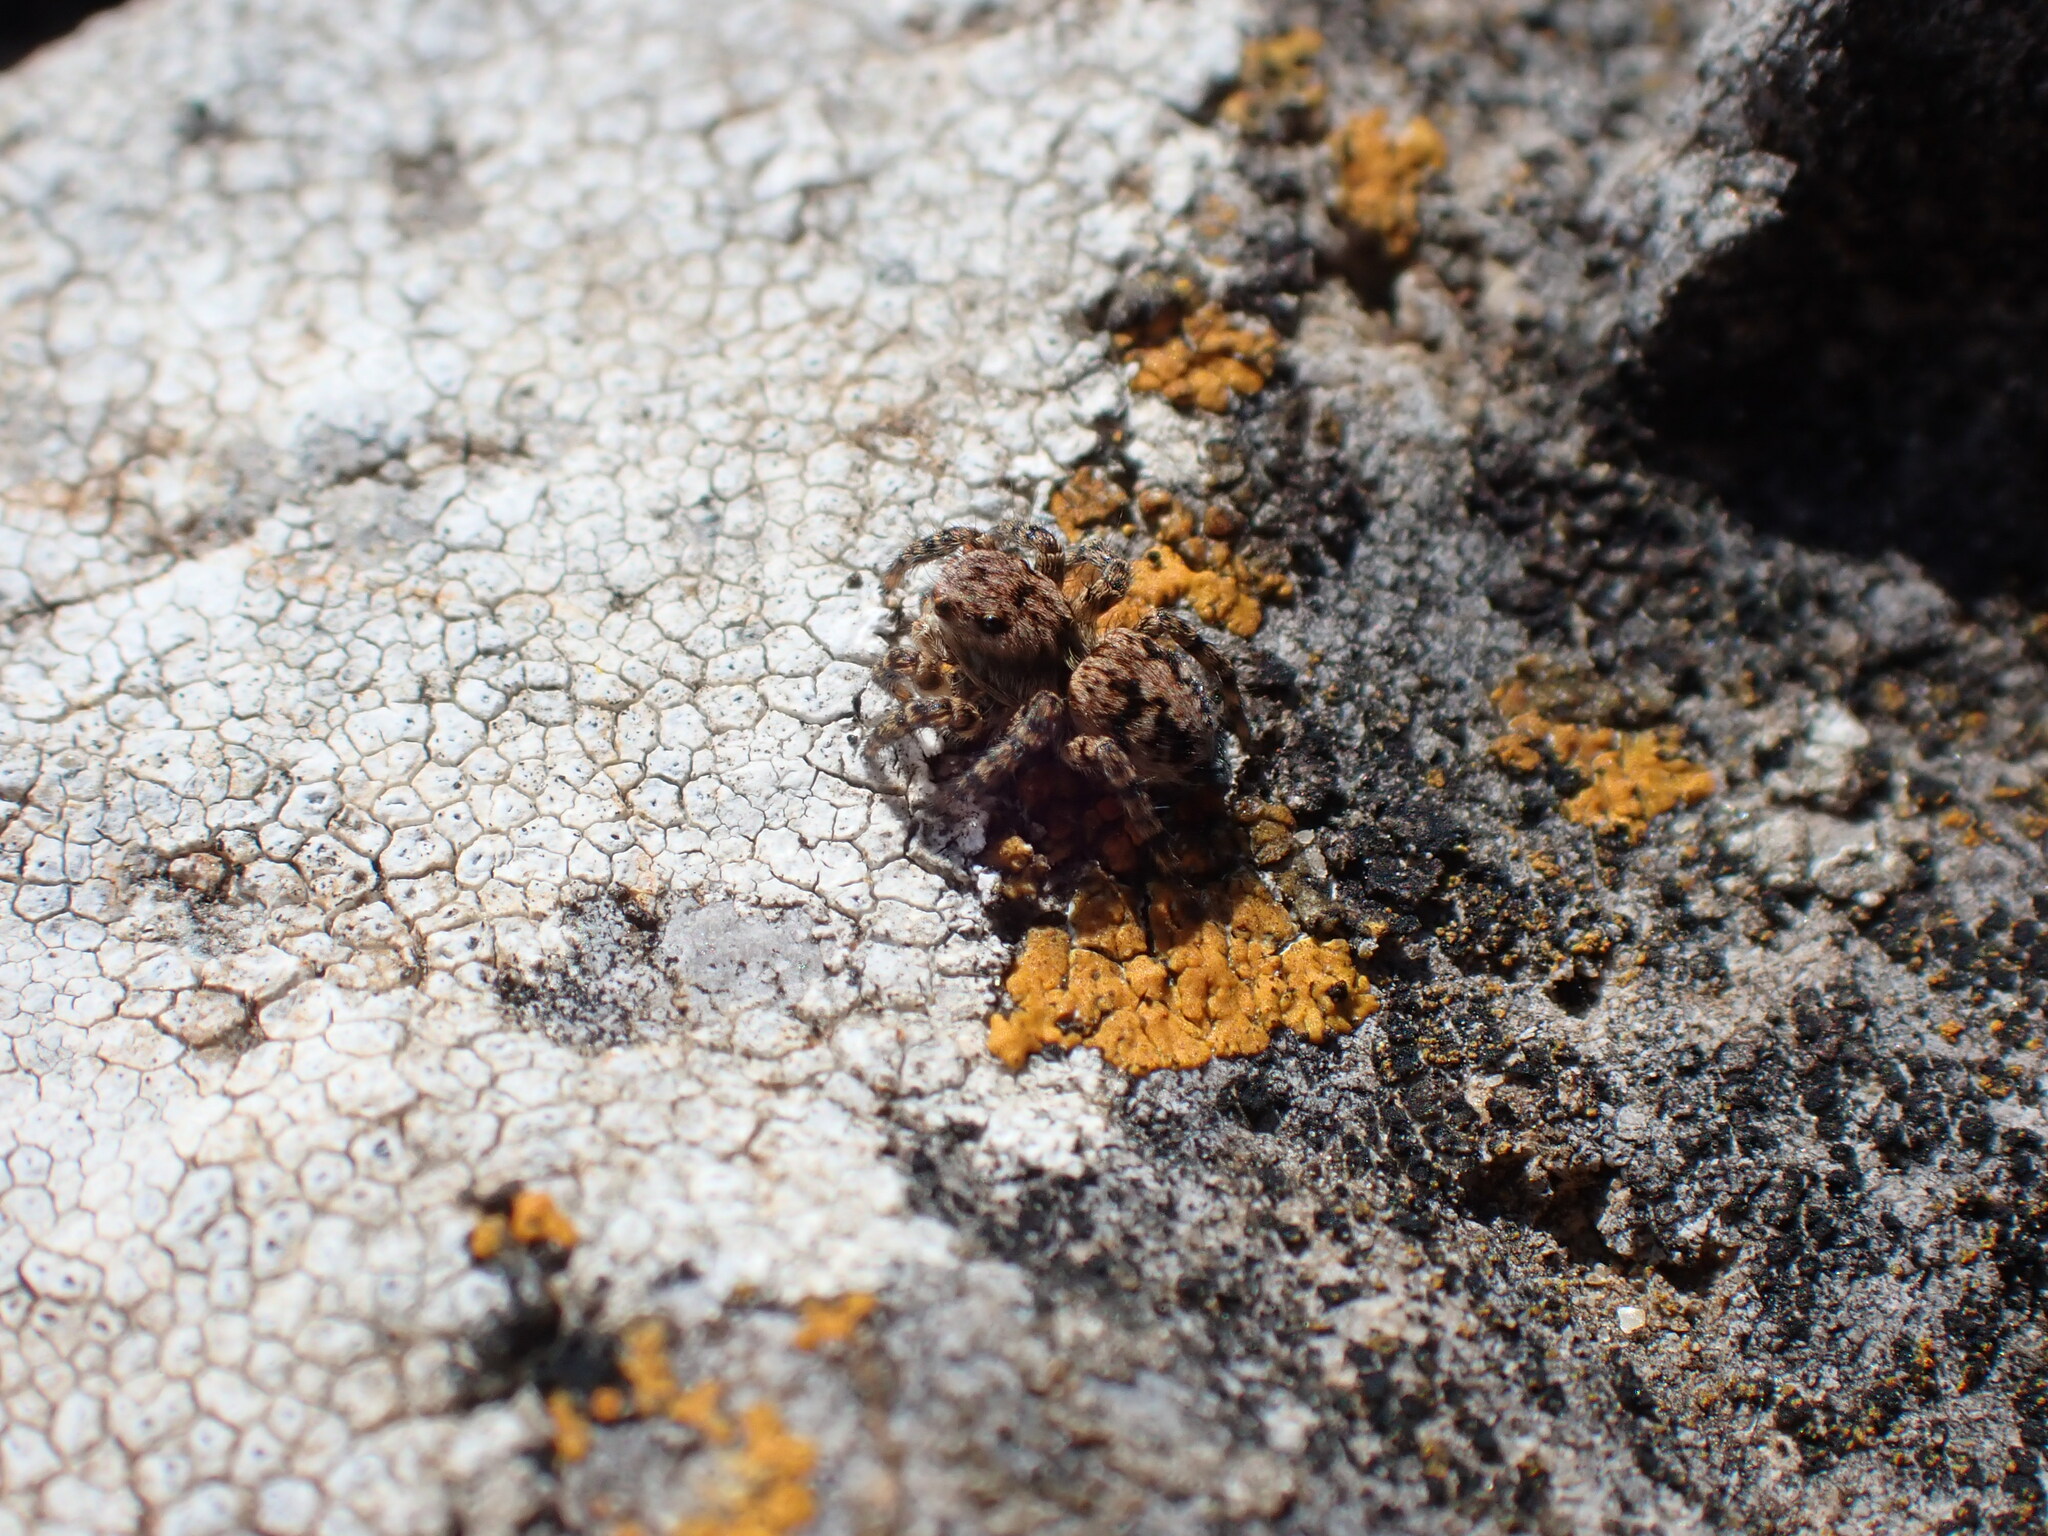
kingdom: Animalia
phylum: Arthropoda
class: Arachnida
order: Araneae
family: Salticidae
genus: Aelurillus
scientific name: Aelurillus v-insignitus
